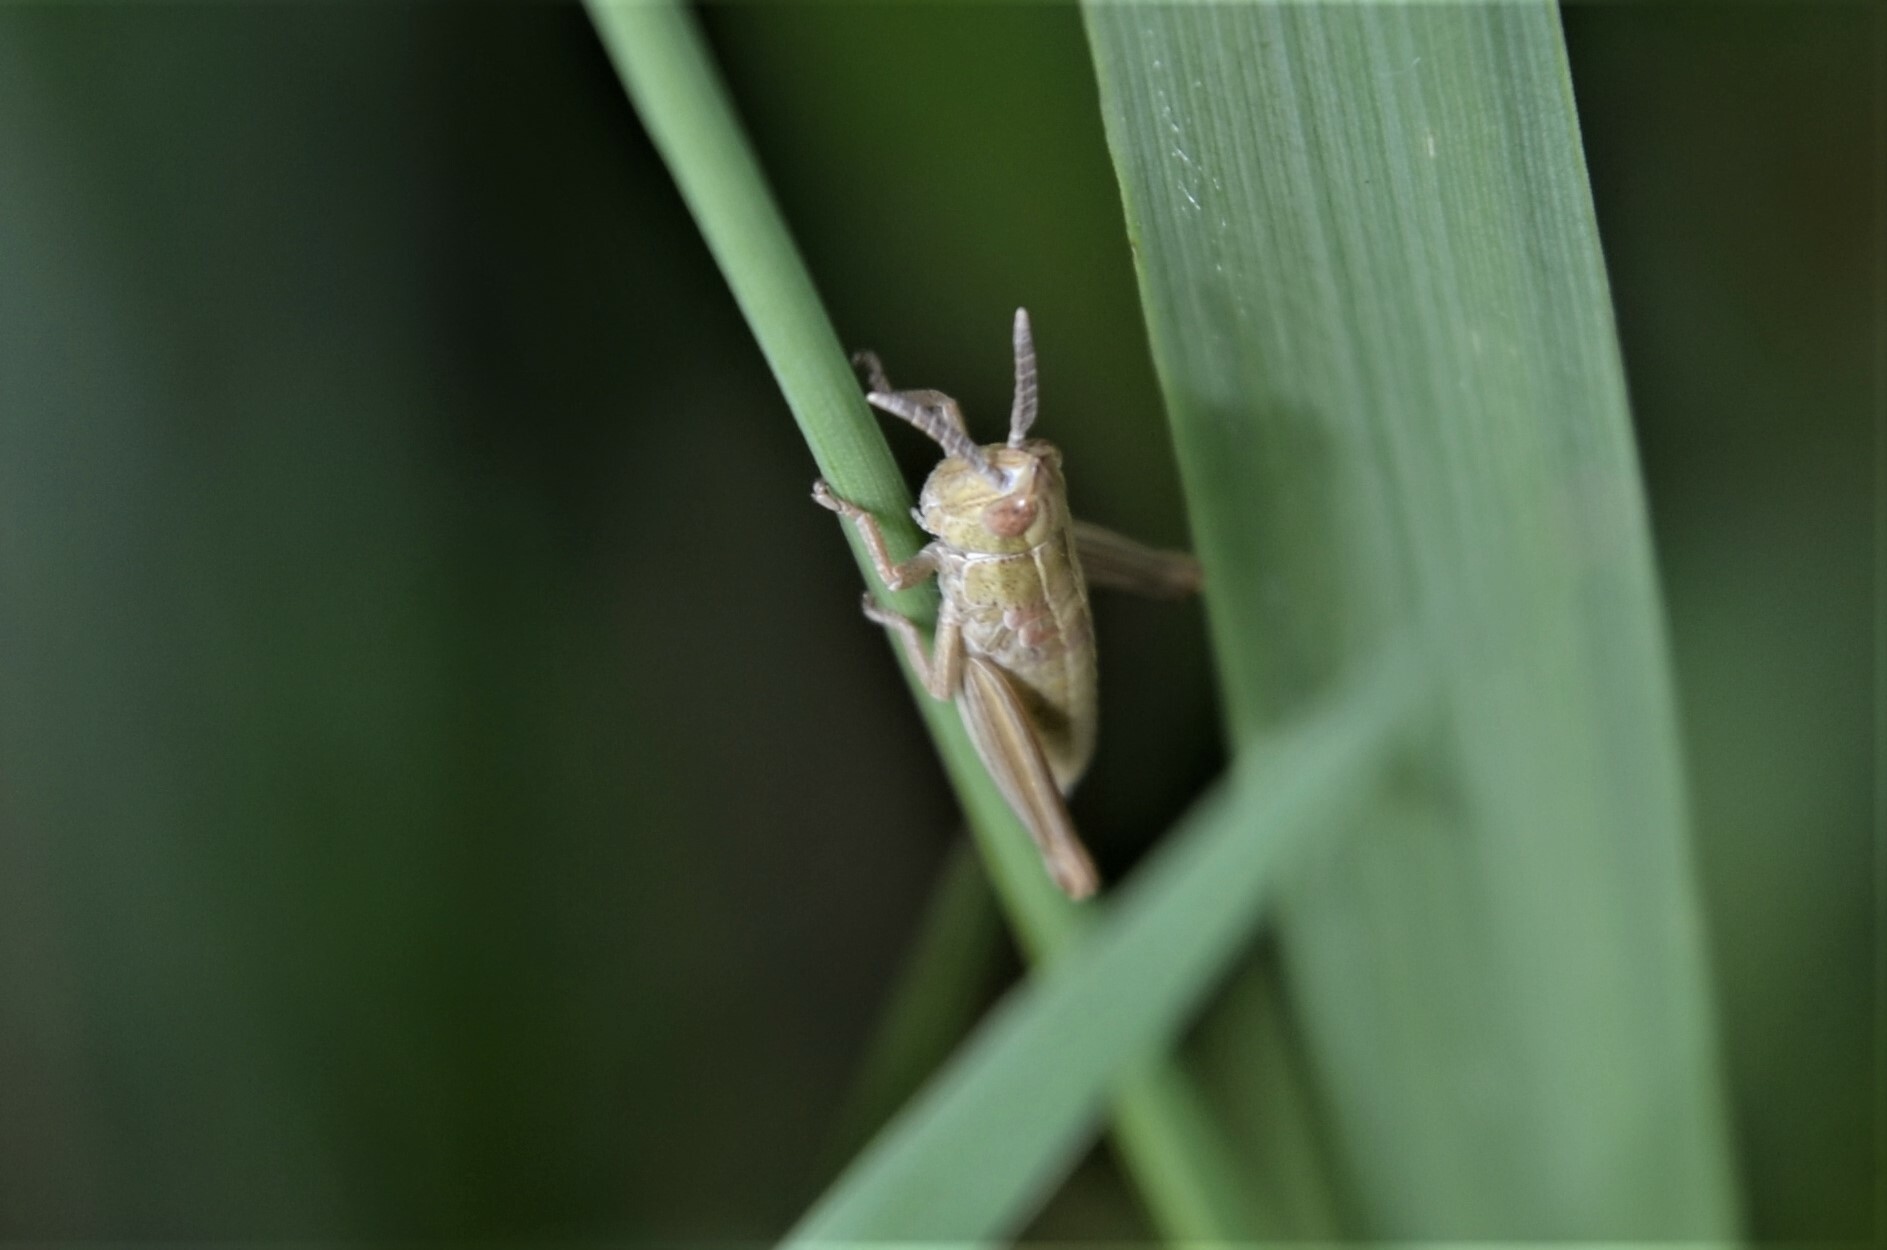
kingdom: Animalia
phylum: Arthropoda
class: Insecta
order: Orthoptera
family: Acrididae
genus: Euthystira
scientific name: Euthystira brachyptera
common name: Small gold grasshopper
